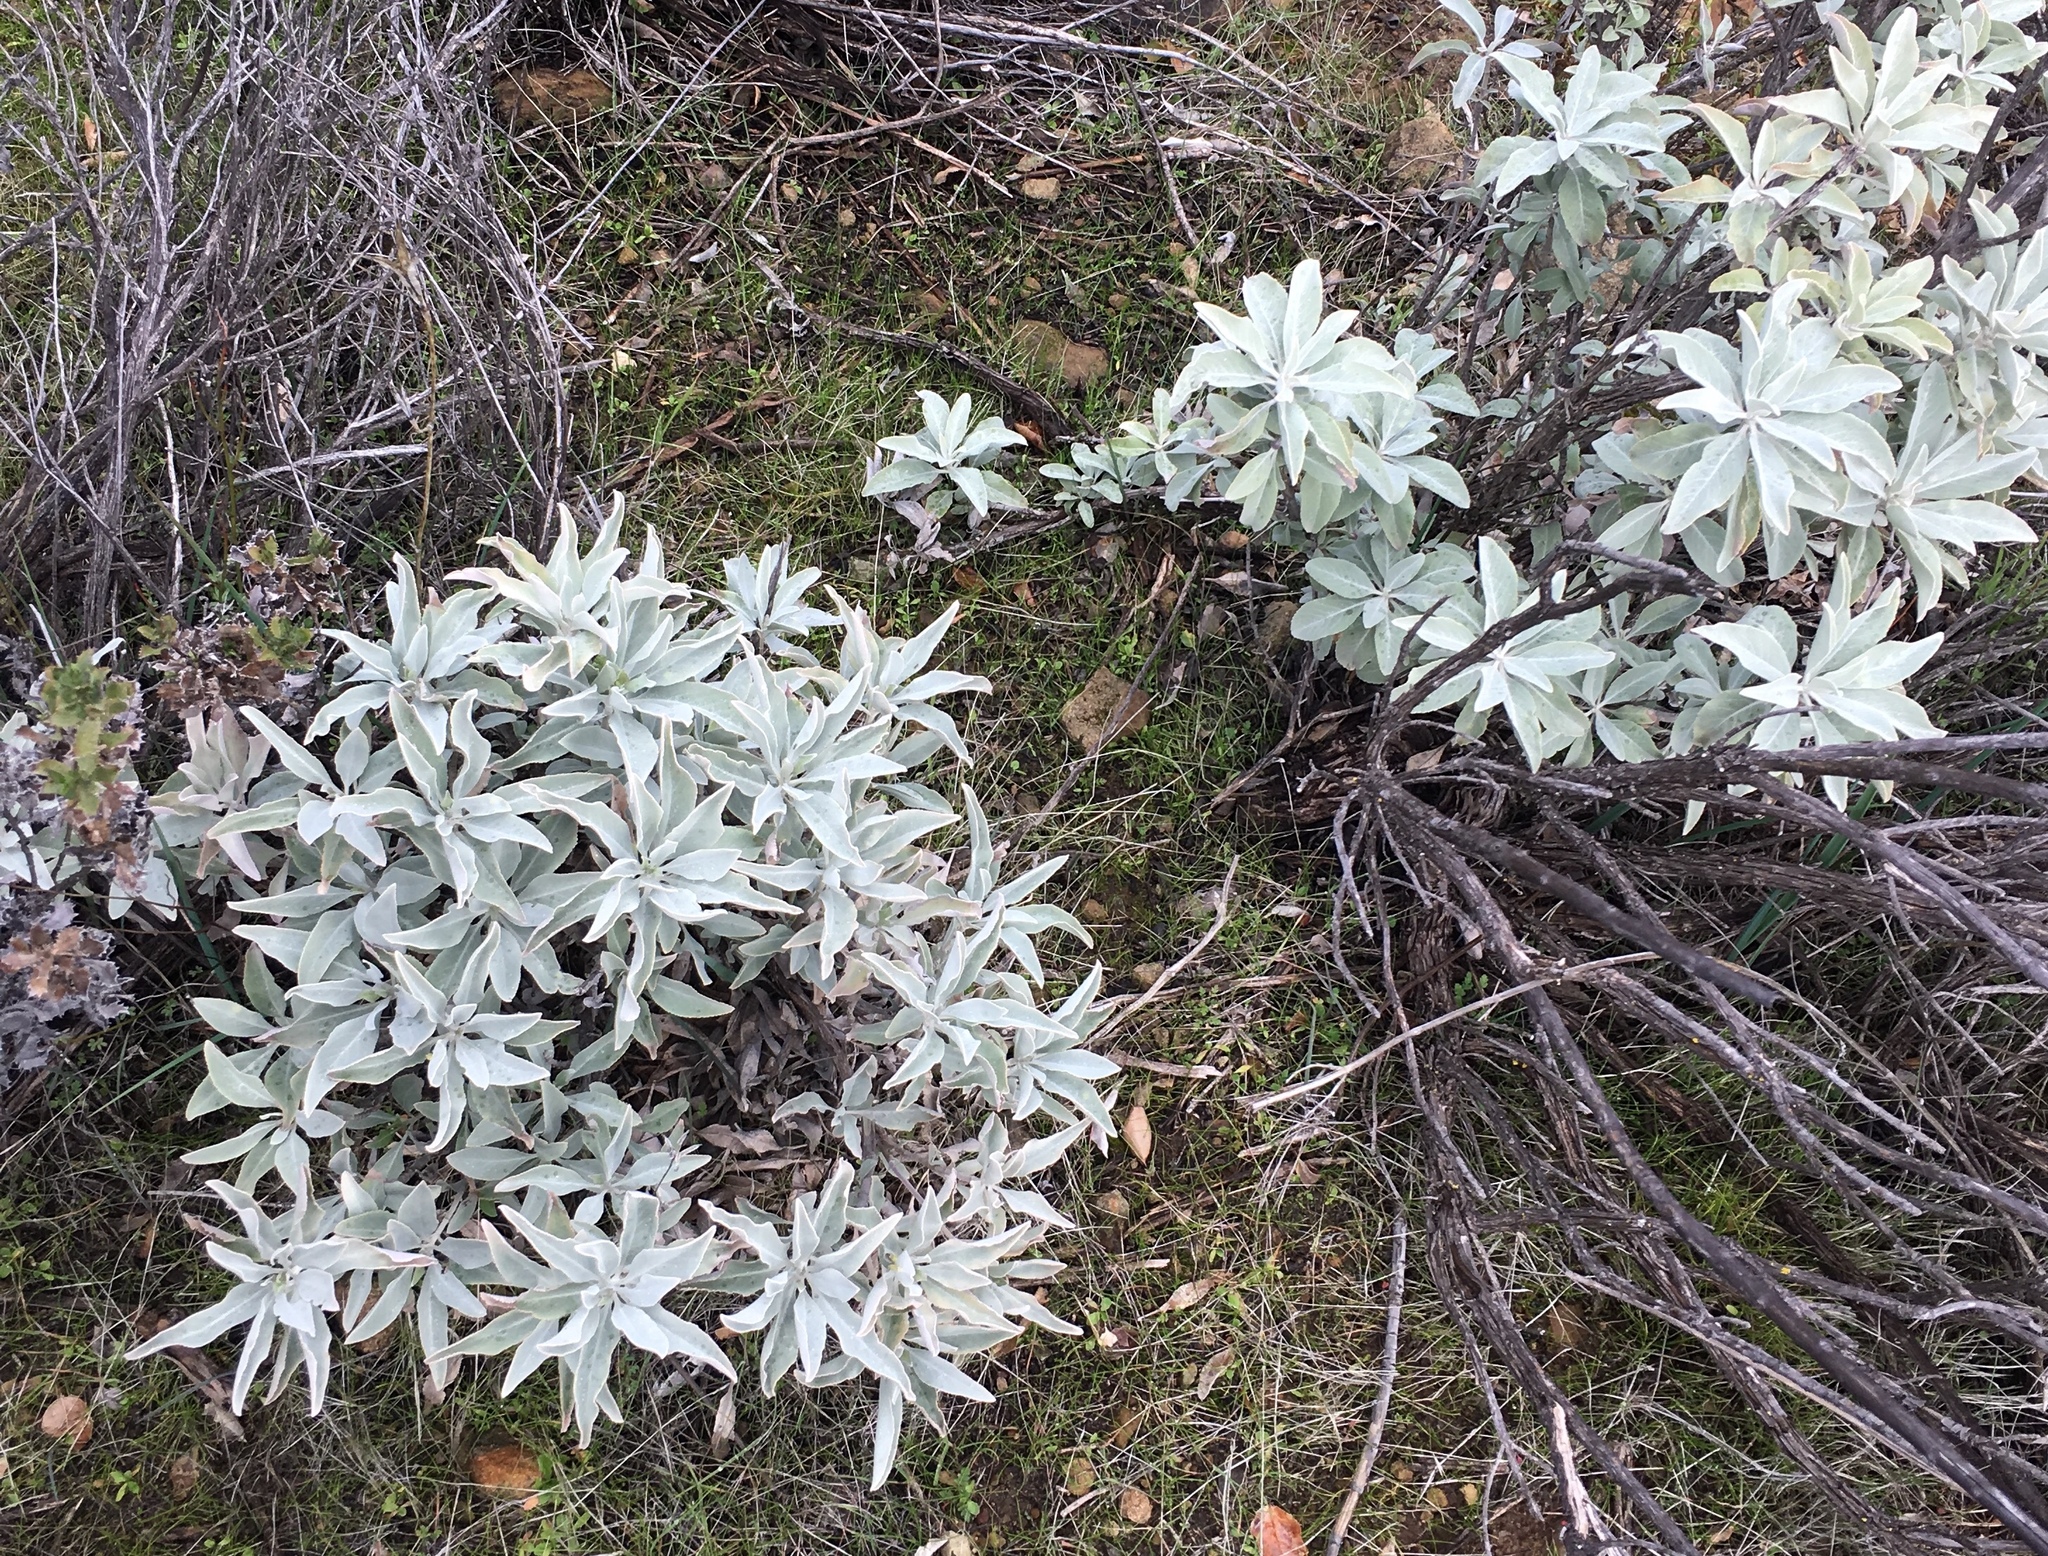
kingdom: Plantae
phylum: Tracheophyta
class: Magnoliopsida
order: Lamiales
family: Lamiaceae
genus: Salvia
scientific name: Salvia apiana
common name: White sage
